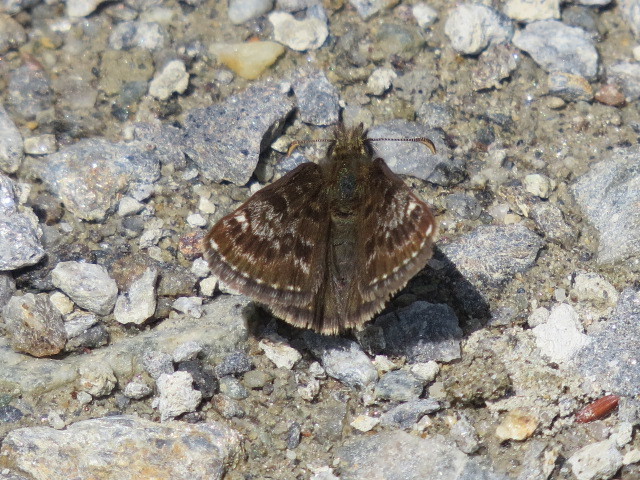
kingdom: Animalia
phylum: Arthropoda
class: Insecta
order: Lepidoptera
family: Hesperiidae
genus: Erynnis
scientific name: Erynnis tages
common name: Dingy skipper
